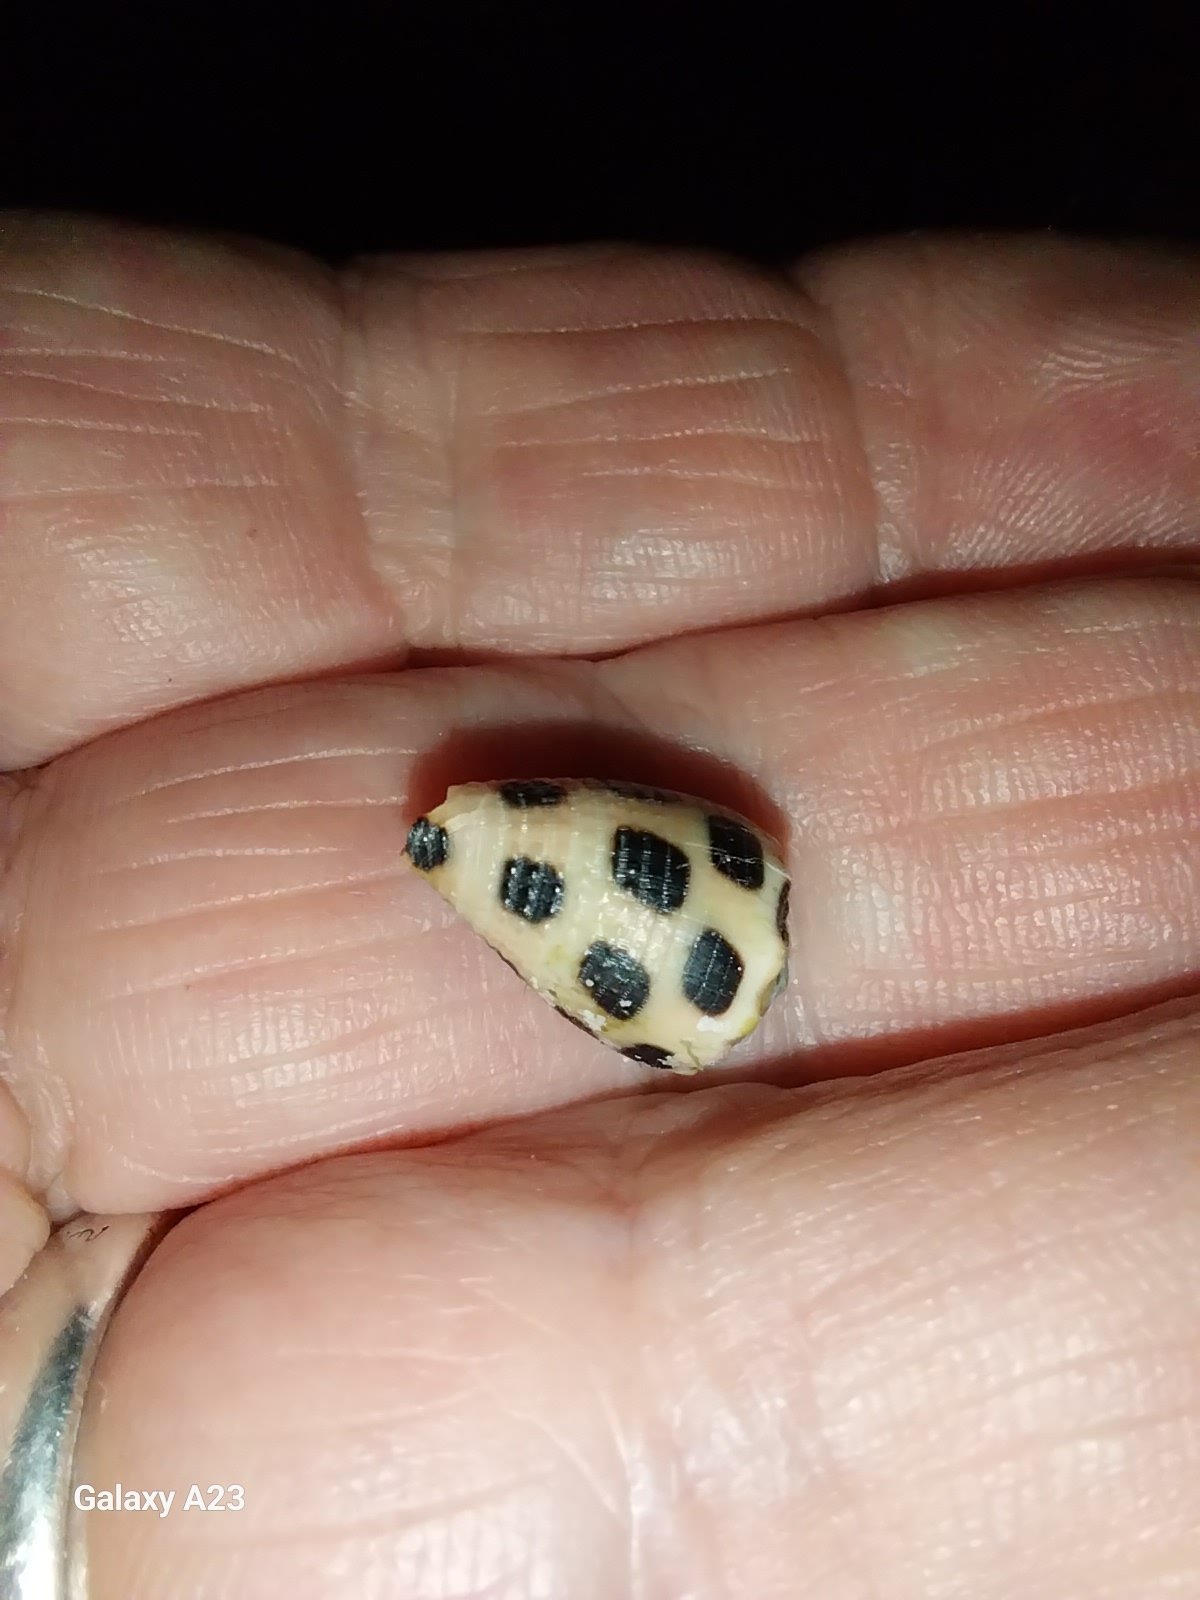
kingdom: Animalia
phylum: Mollusca
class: Gastropoda
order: Neogastropoda
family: Conidae
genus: Conus
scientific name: Conus ebraeus
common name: Hebrew cone
